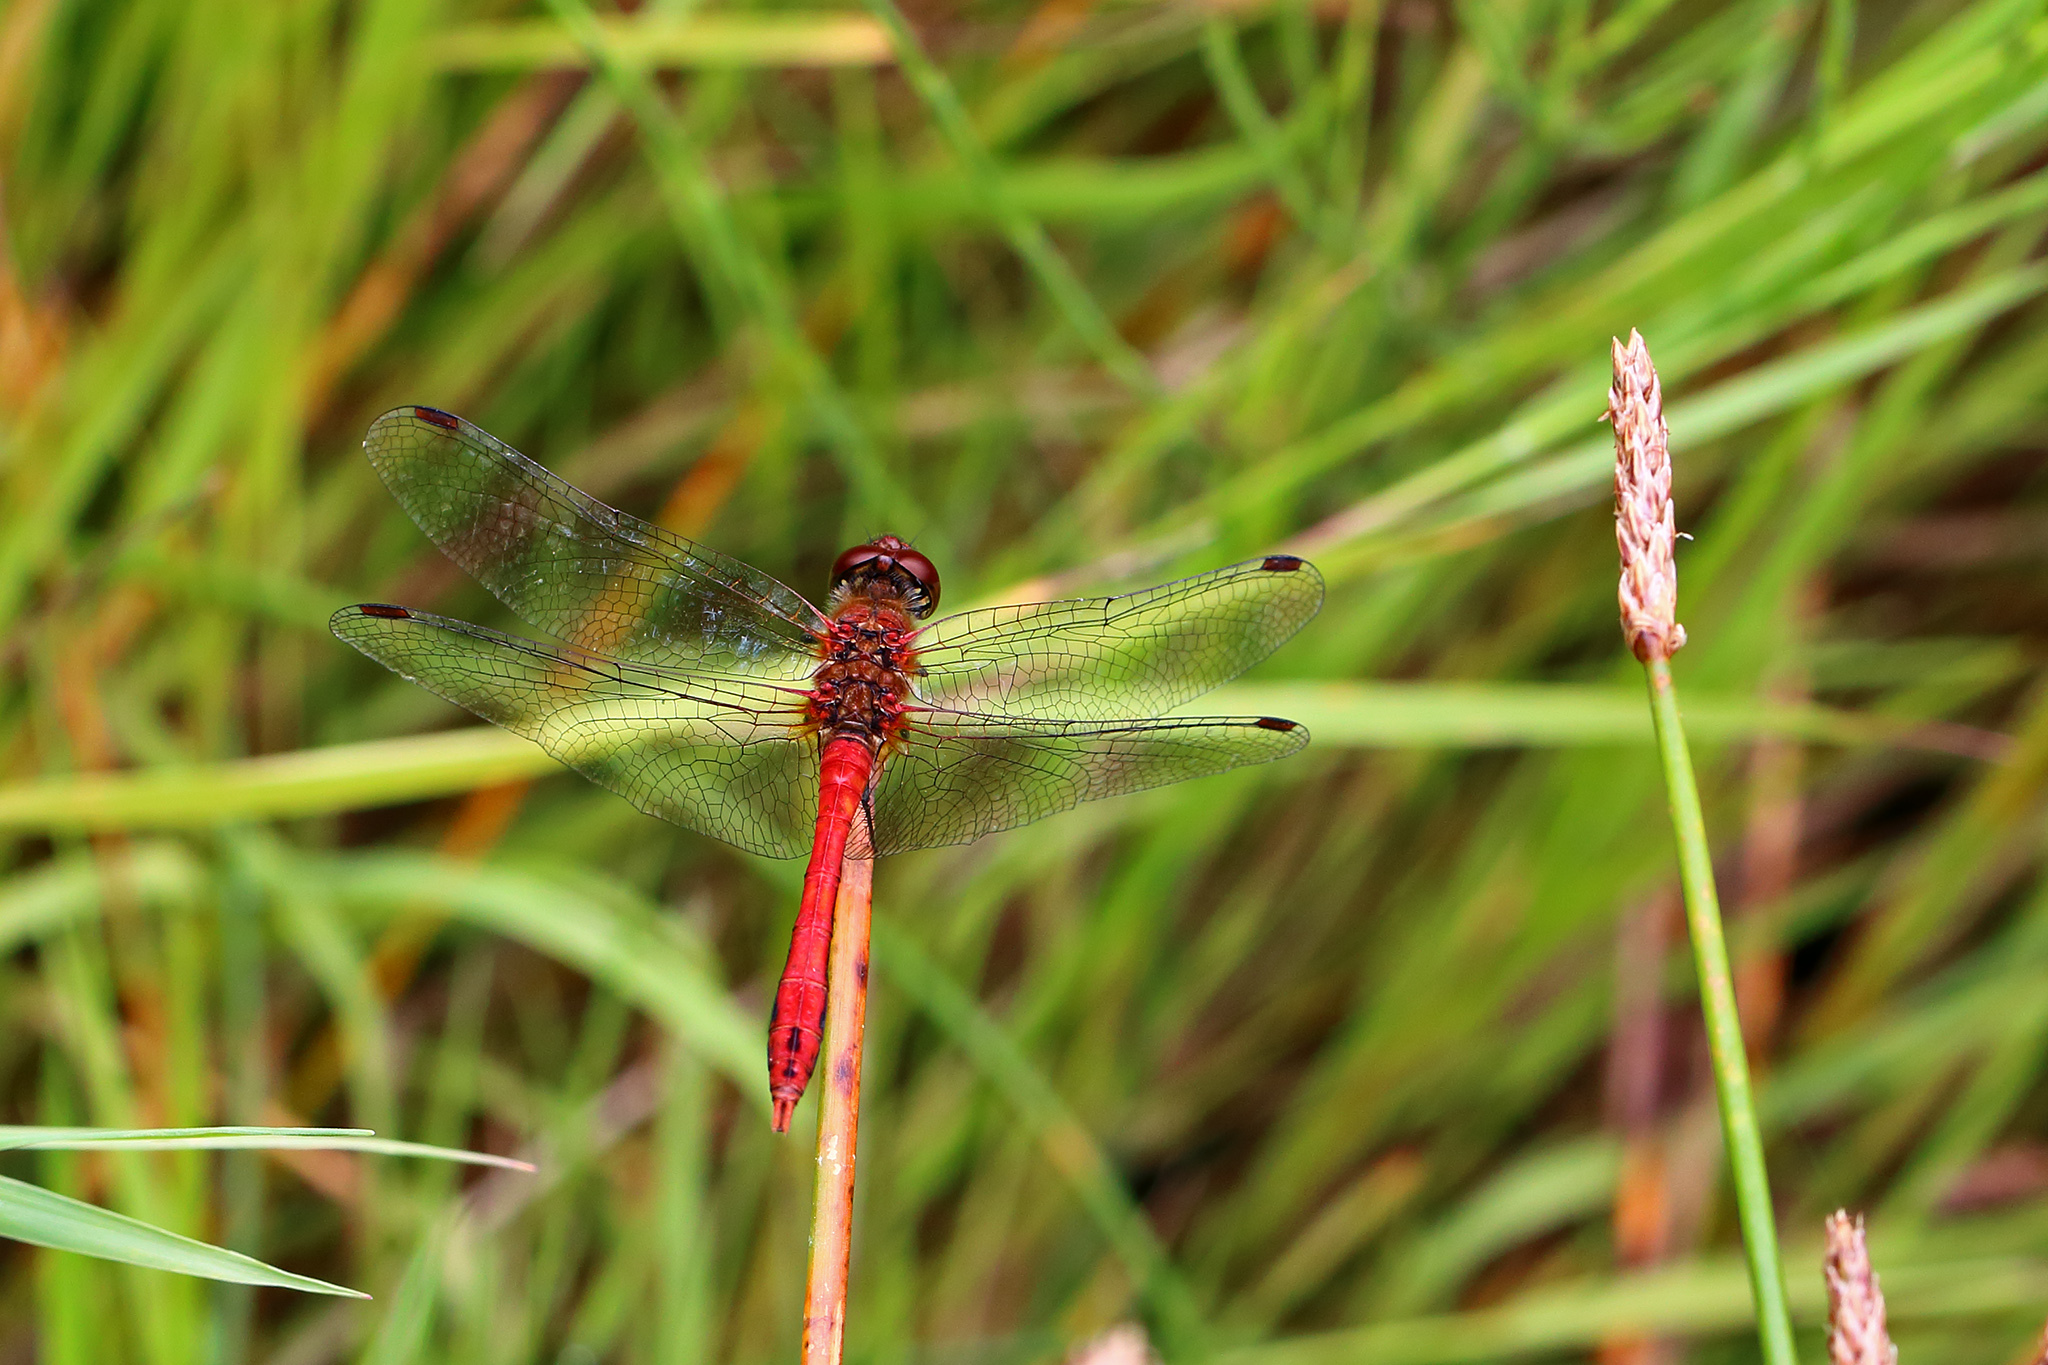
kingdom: Animalia
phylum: Arthropoda
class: Insecta
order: Odonata
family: Libellulidae
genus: Sympetrum
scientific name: Sympetrum sanguineum
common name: Ruddy darter
